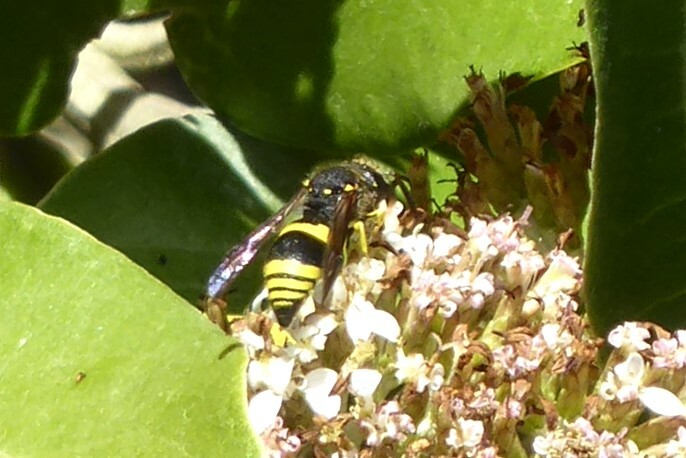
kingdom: Animalia
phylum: Arthropoda
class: Insecta
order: Hymenoptera
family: Vespidae
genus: Ancistrocerus
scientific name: Ancistrocerus gazella
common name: European tube wasp
